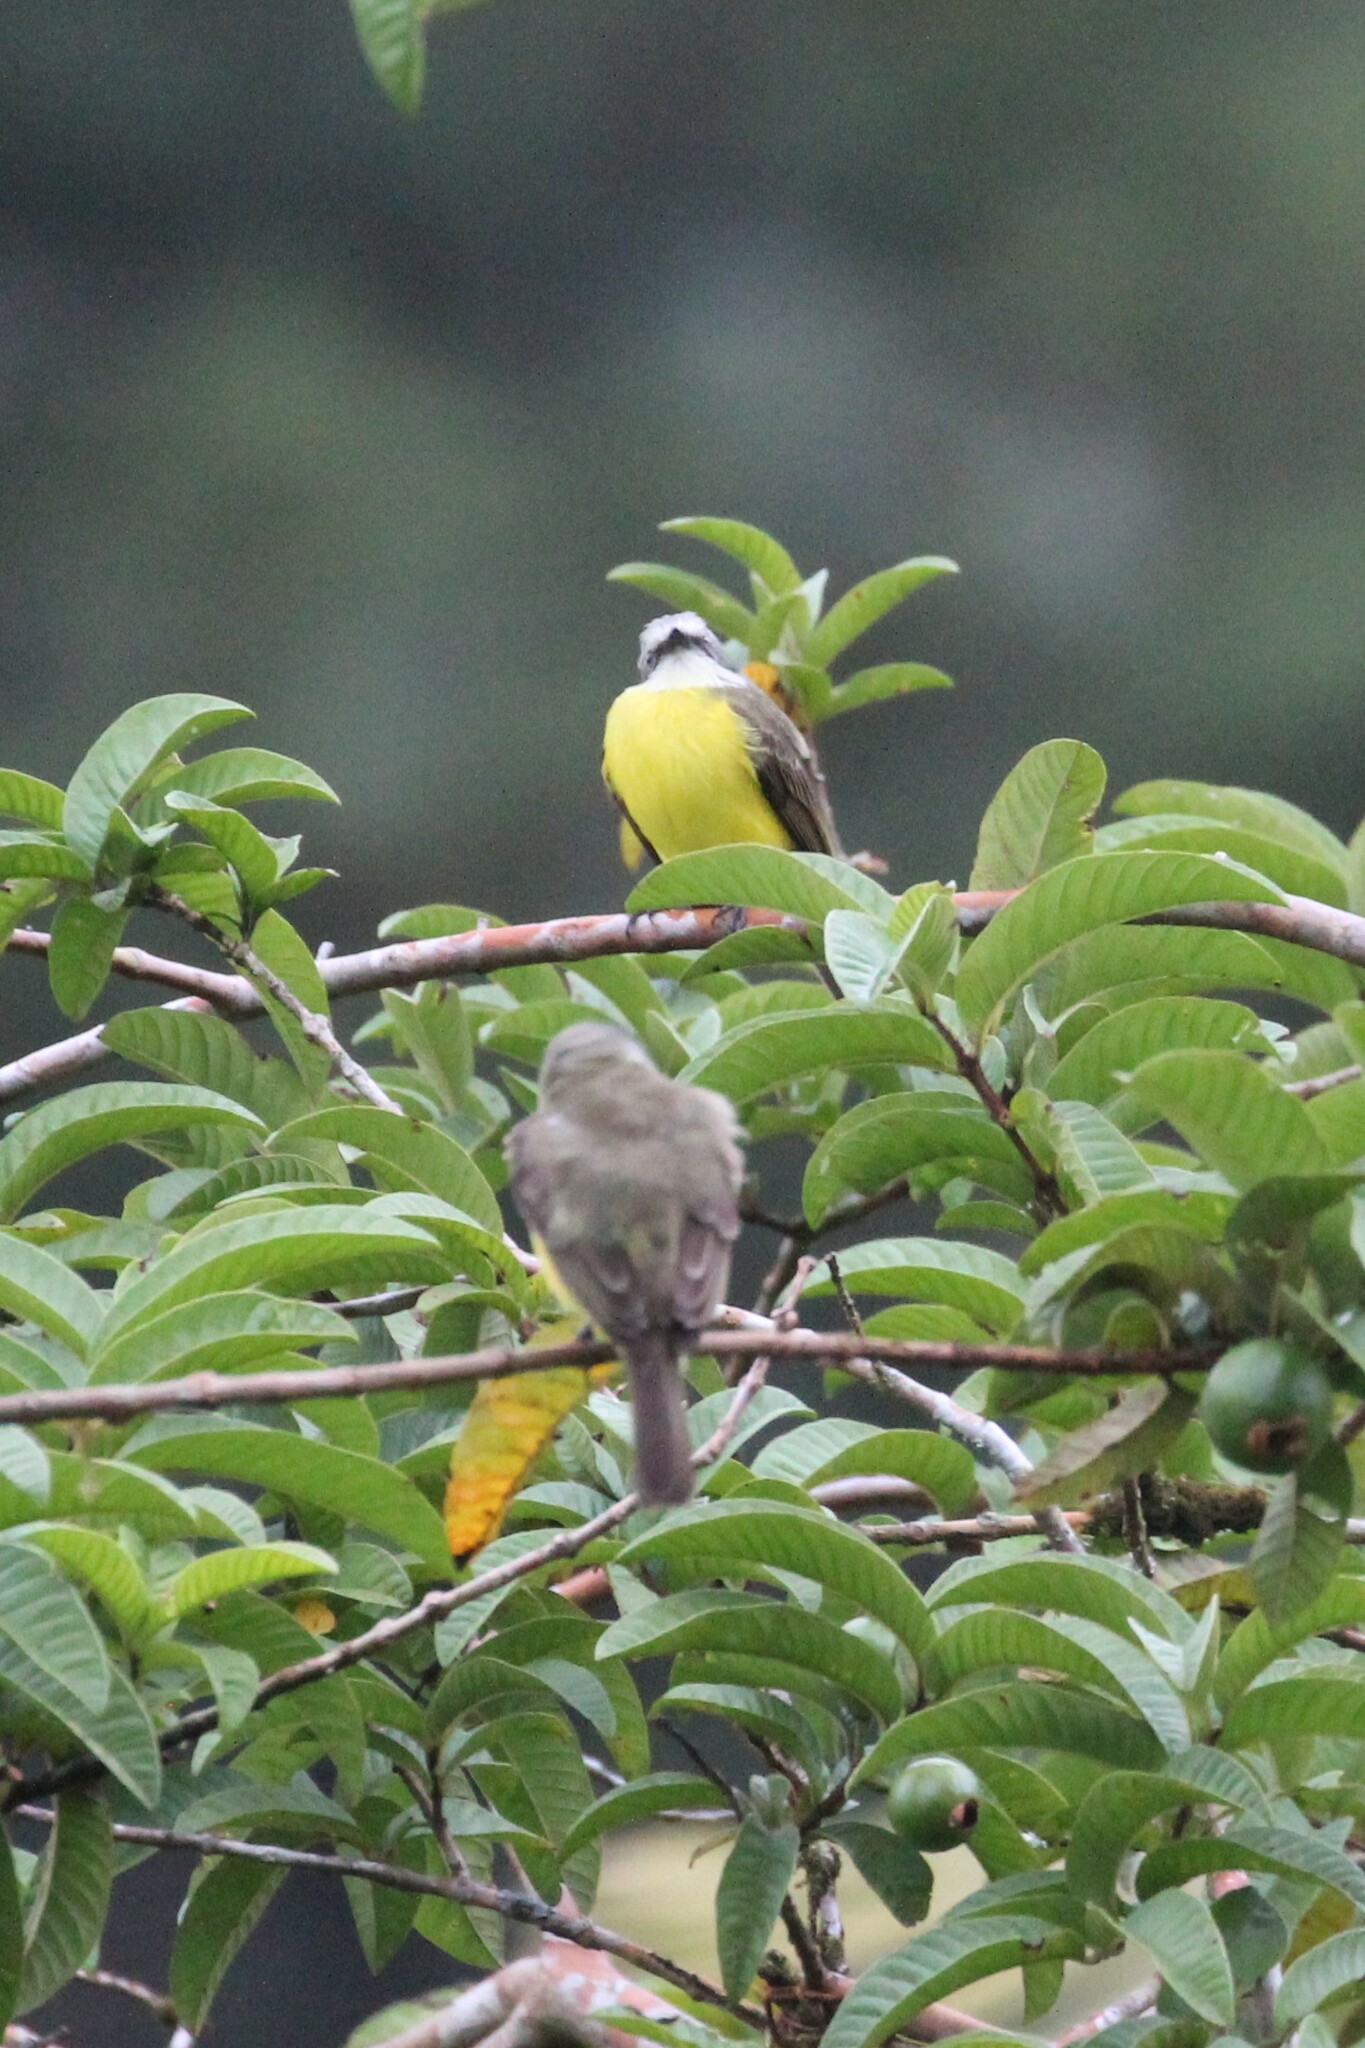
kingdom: Animalia
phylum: Chordata
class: Aves
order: Passeriformes
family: Tyrannidae
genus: Myiozetetes
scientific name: Myiozetetes granadensis
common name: Gray-capped flycatcher
